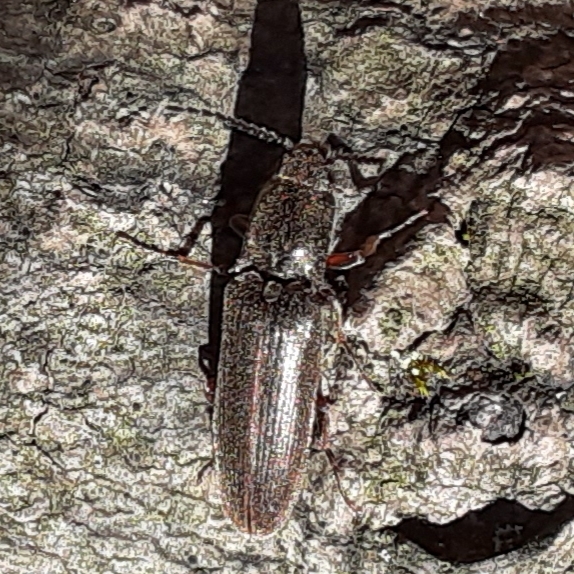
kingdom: Animalia
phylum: Arthropoda
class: Insecta
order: Coleoptera
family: Elateridae
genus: Sylvanelater
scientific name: Sylvanelater cylindriformis
